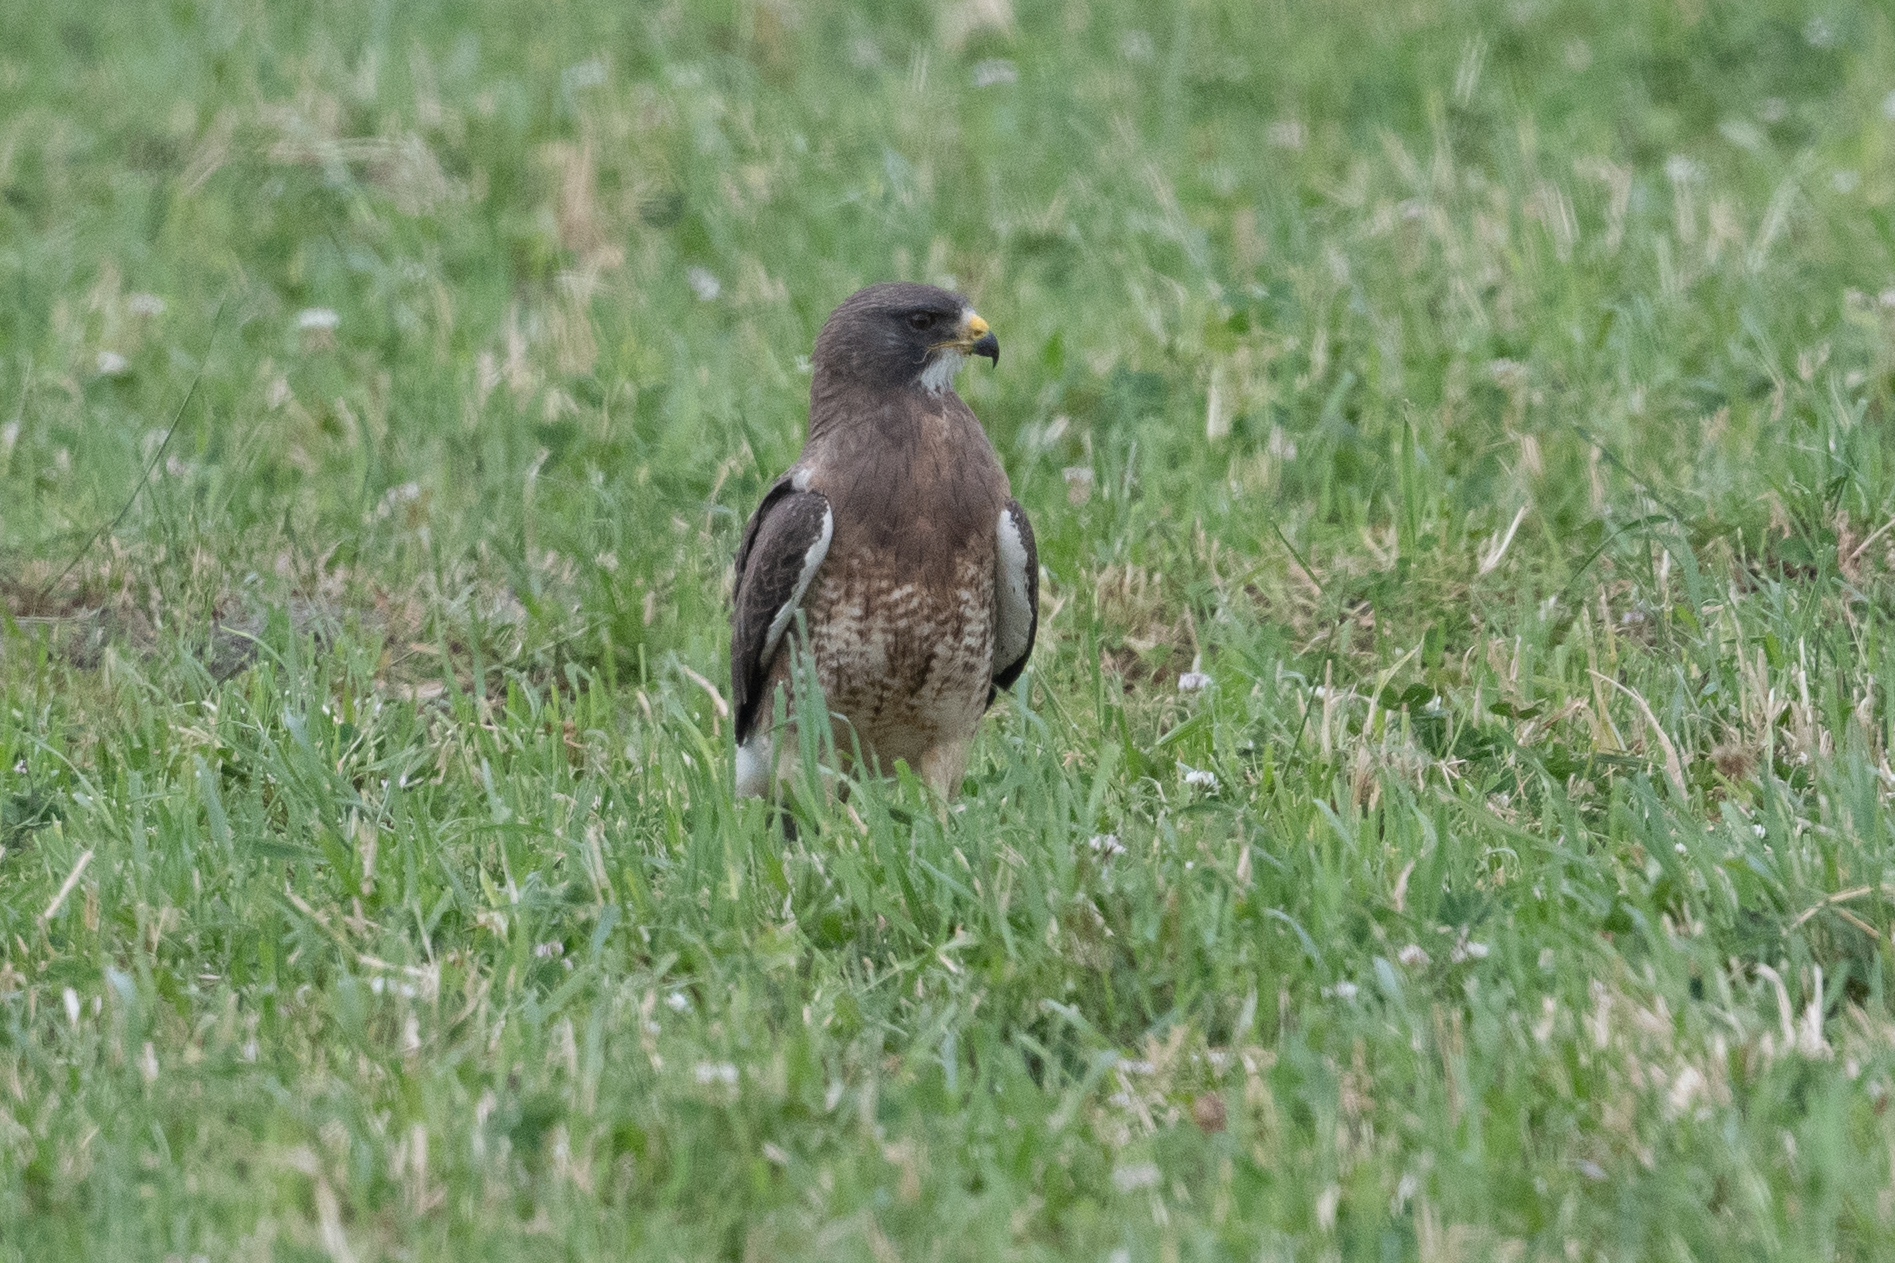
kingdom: Animalia
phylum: Chordata
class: Aves
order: Accipitriformes
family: Accipitridae
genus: Buteo
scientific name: Buteo swainsoni
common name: Swainson's hawk
